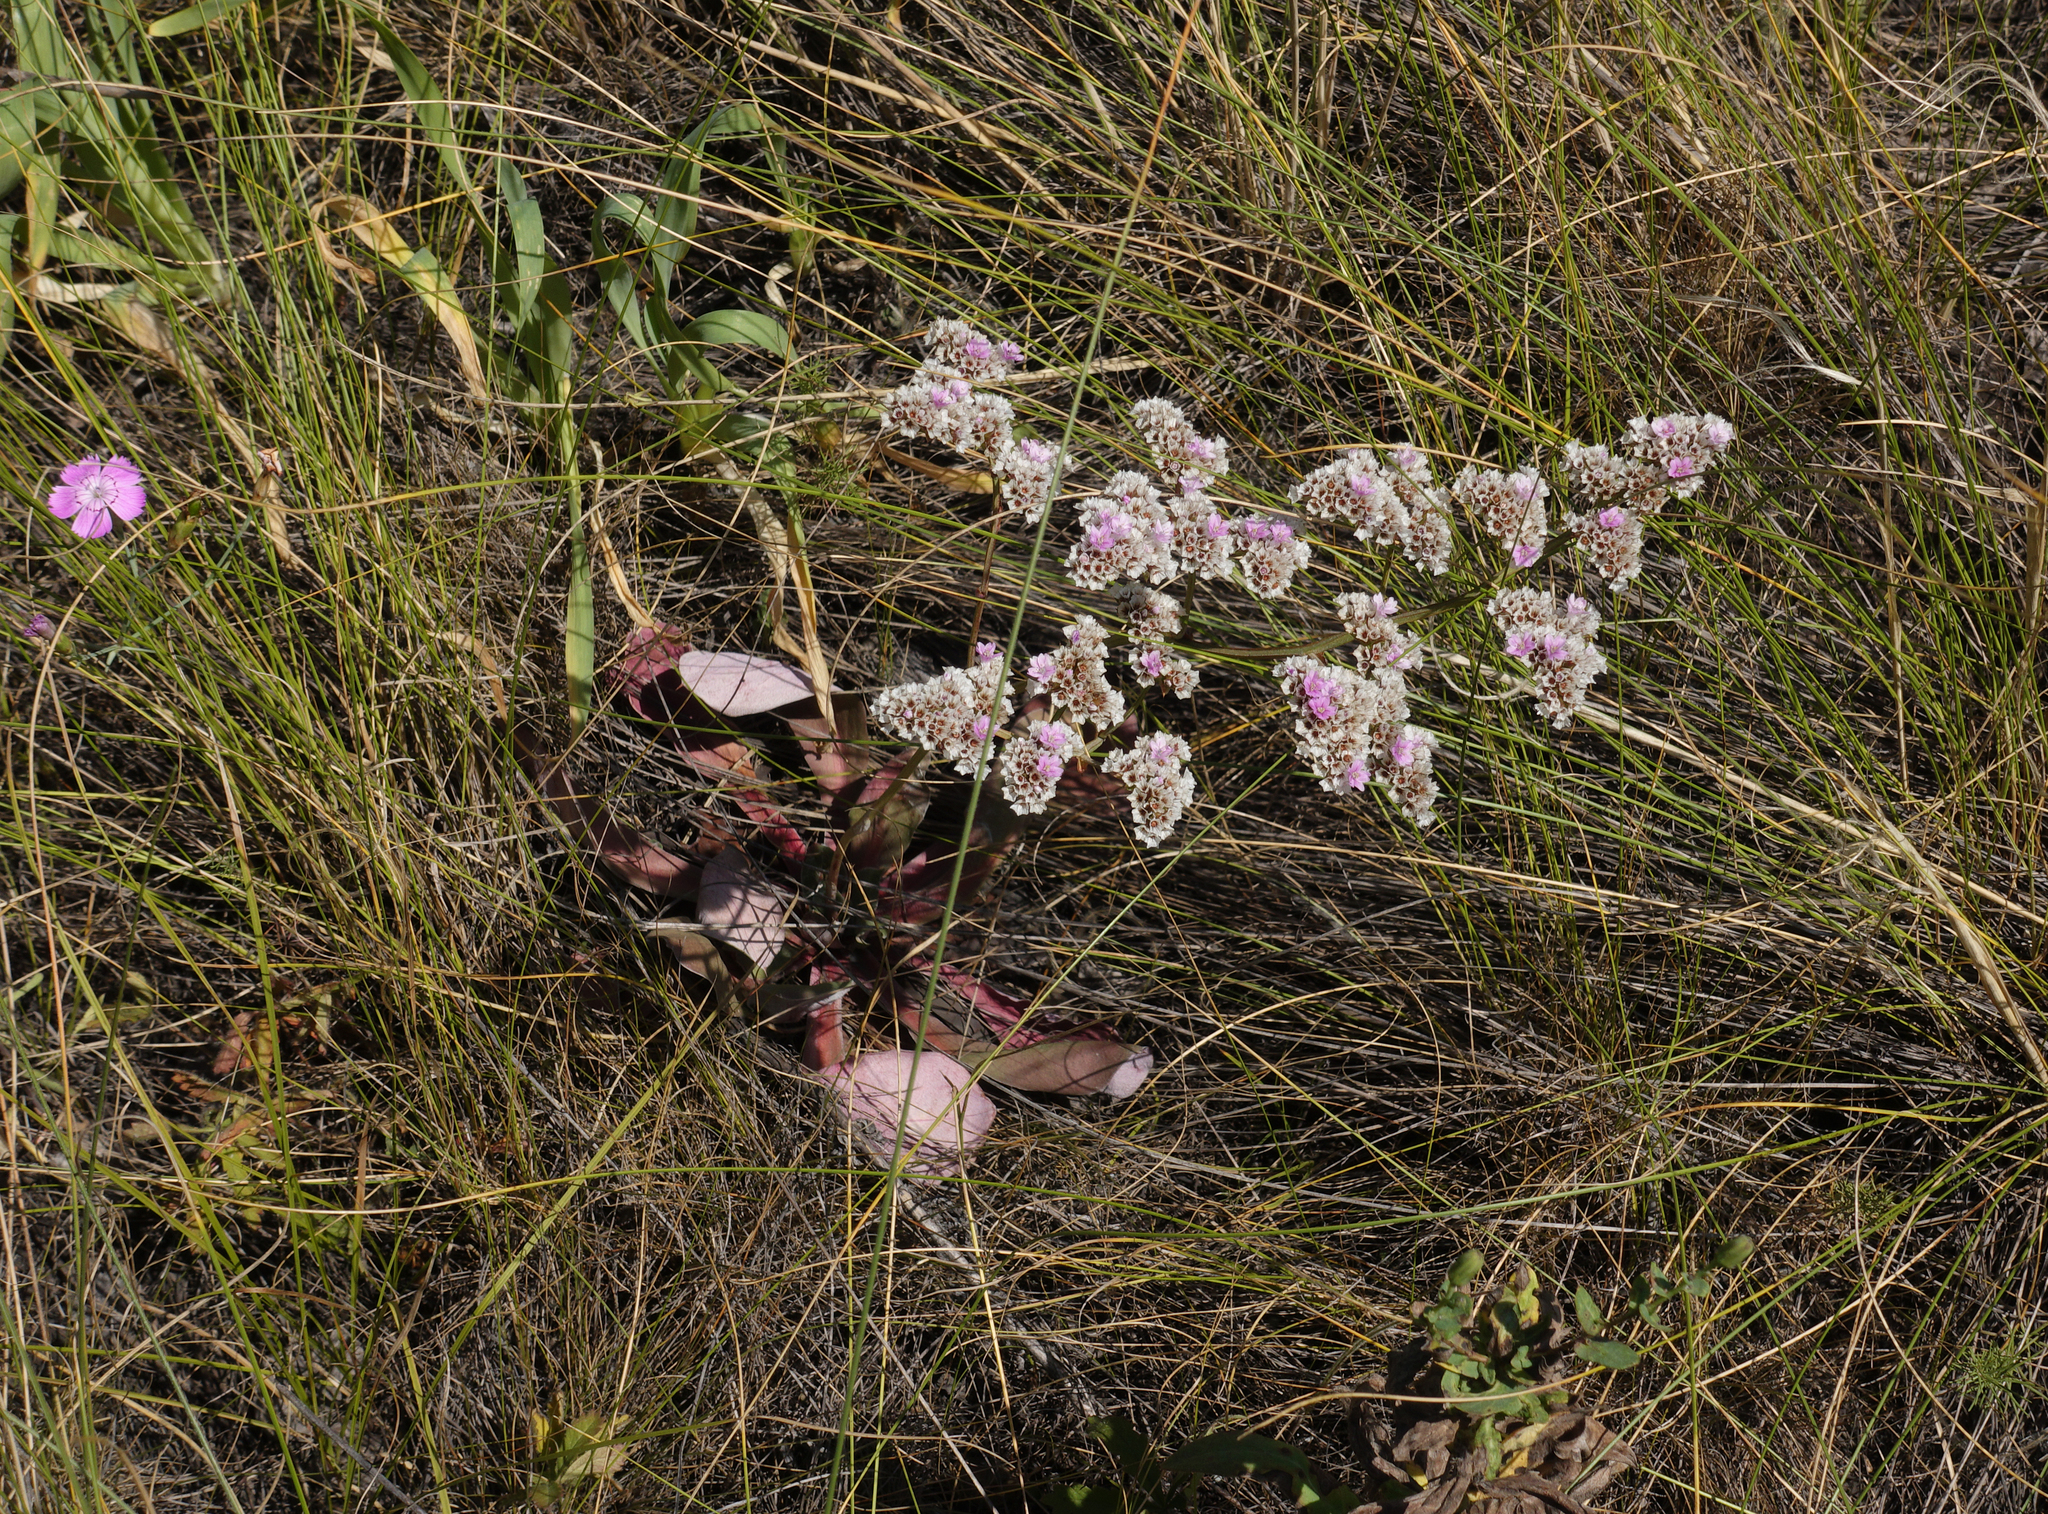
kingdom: Plantae
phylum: Tracheophyta
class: Magnoliopsida
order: Caryophyllales
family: Plumbaginaceae
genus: Goniolimon
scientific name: Goniolimon speciosum
